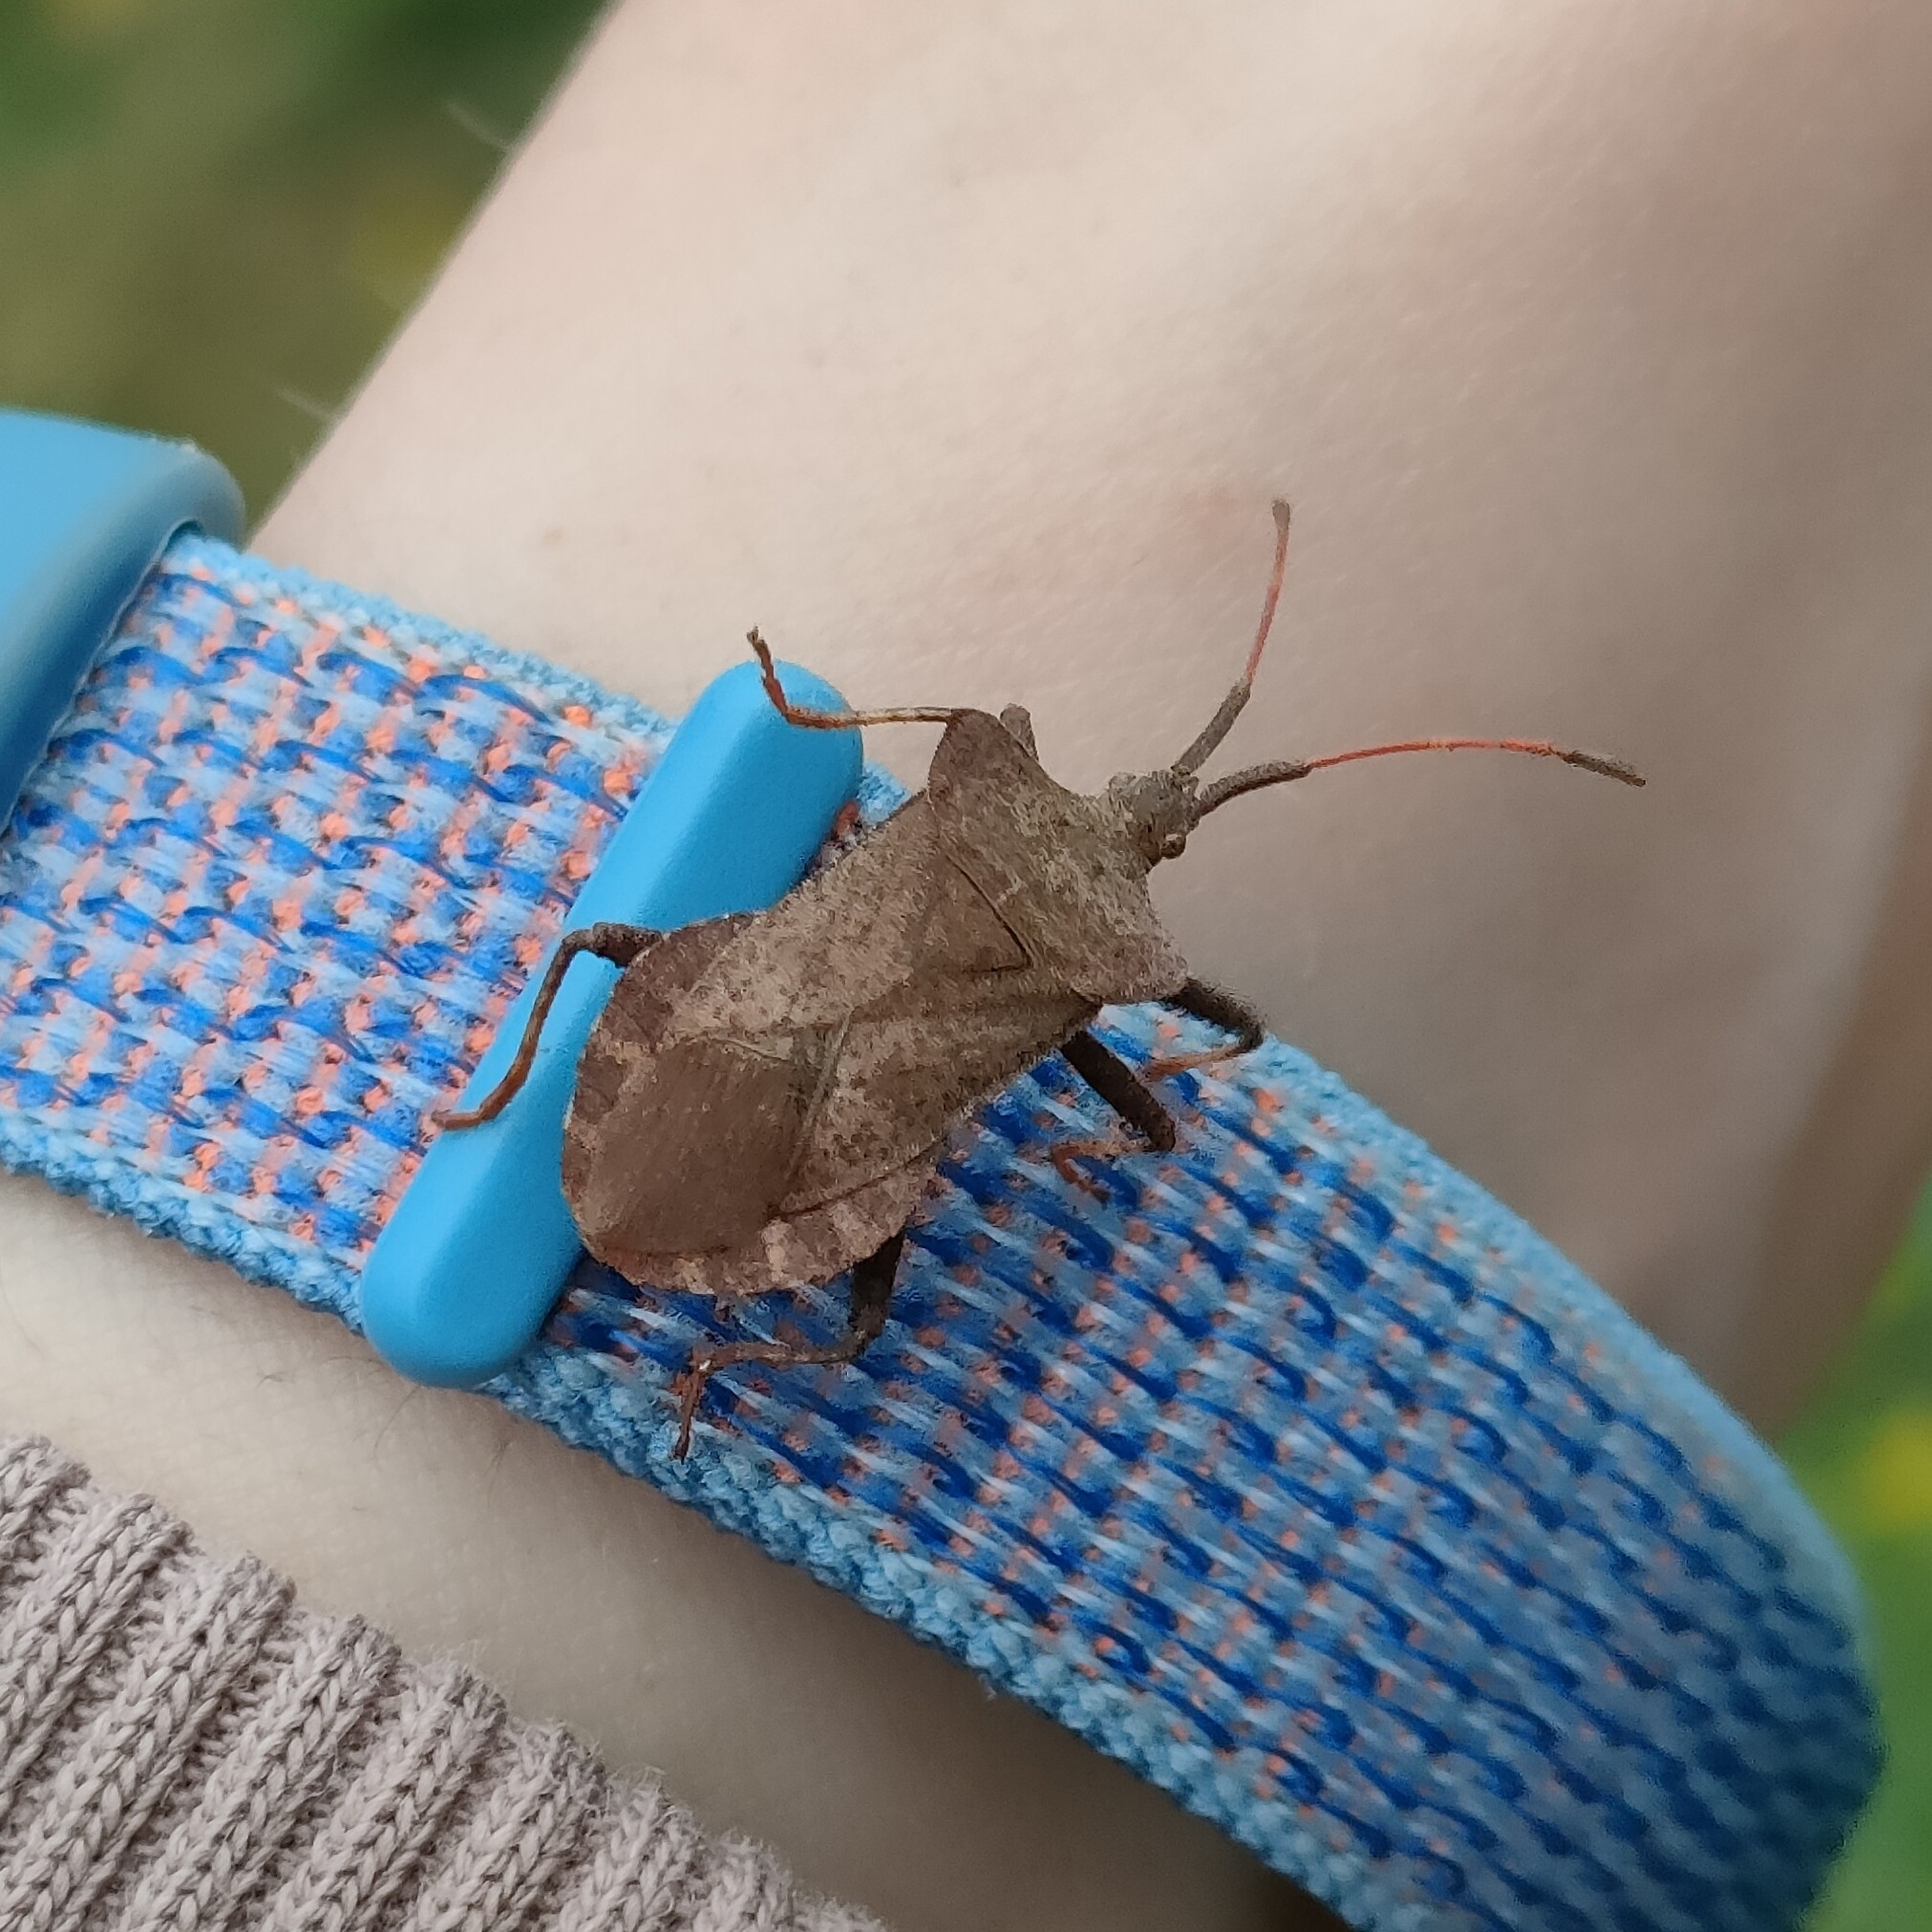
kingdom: Animalia
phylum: Arthropoda
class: Insecta
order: Hemiptera
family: Coreidae
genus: Coreus
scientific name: Coreus marginatus
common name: Dock bug
